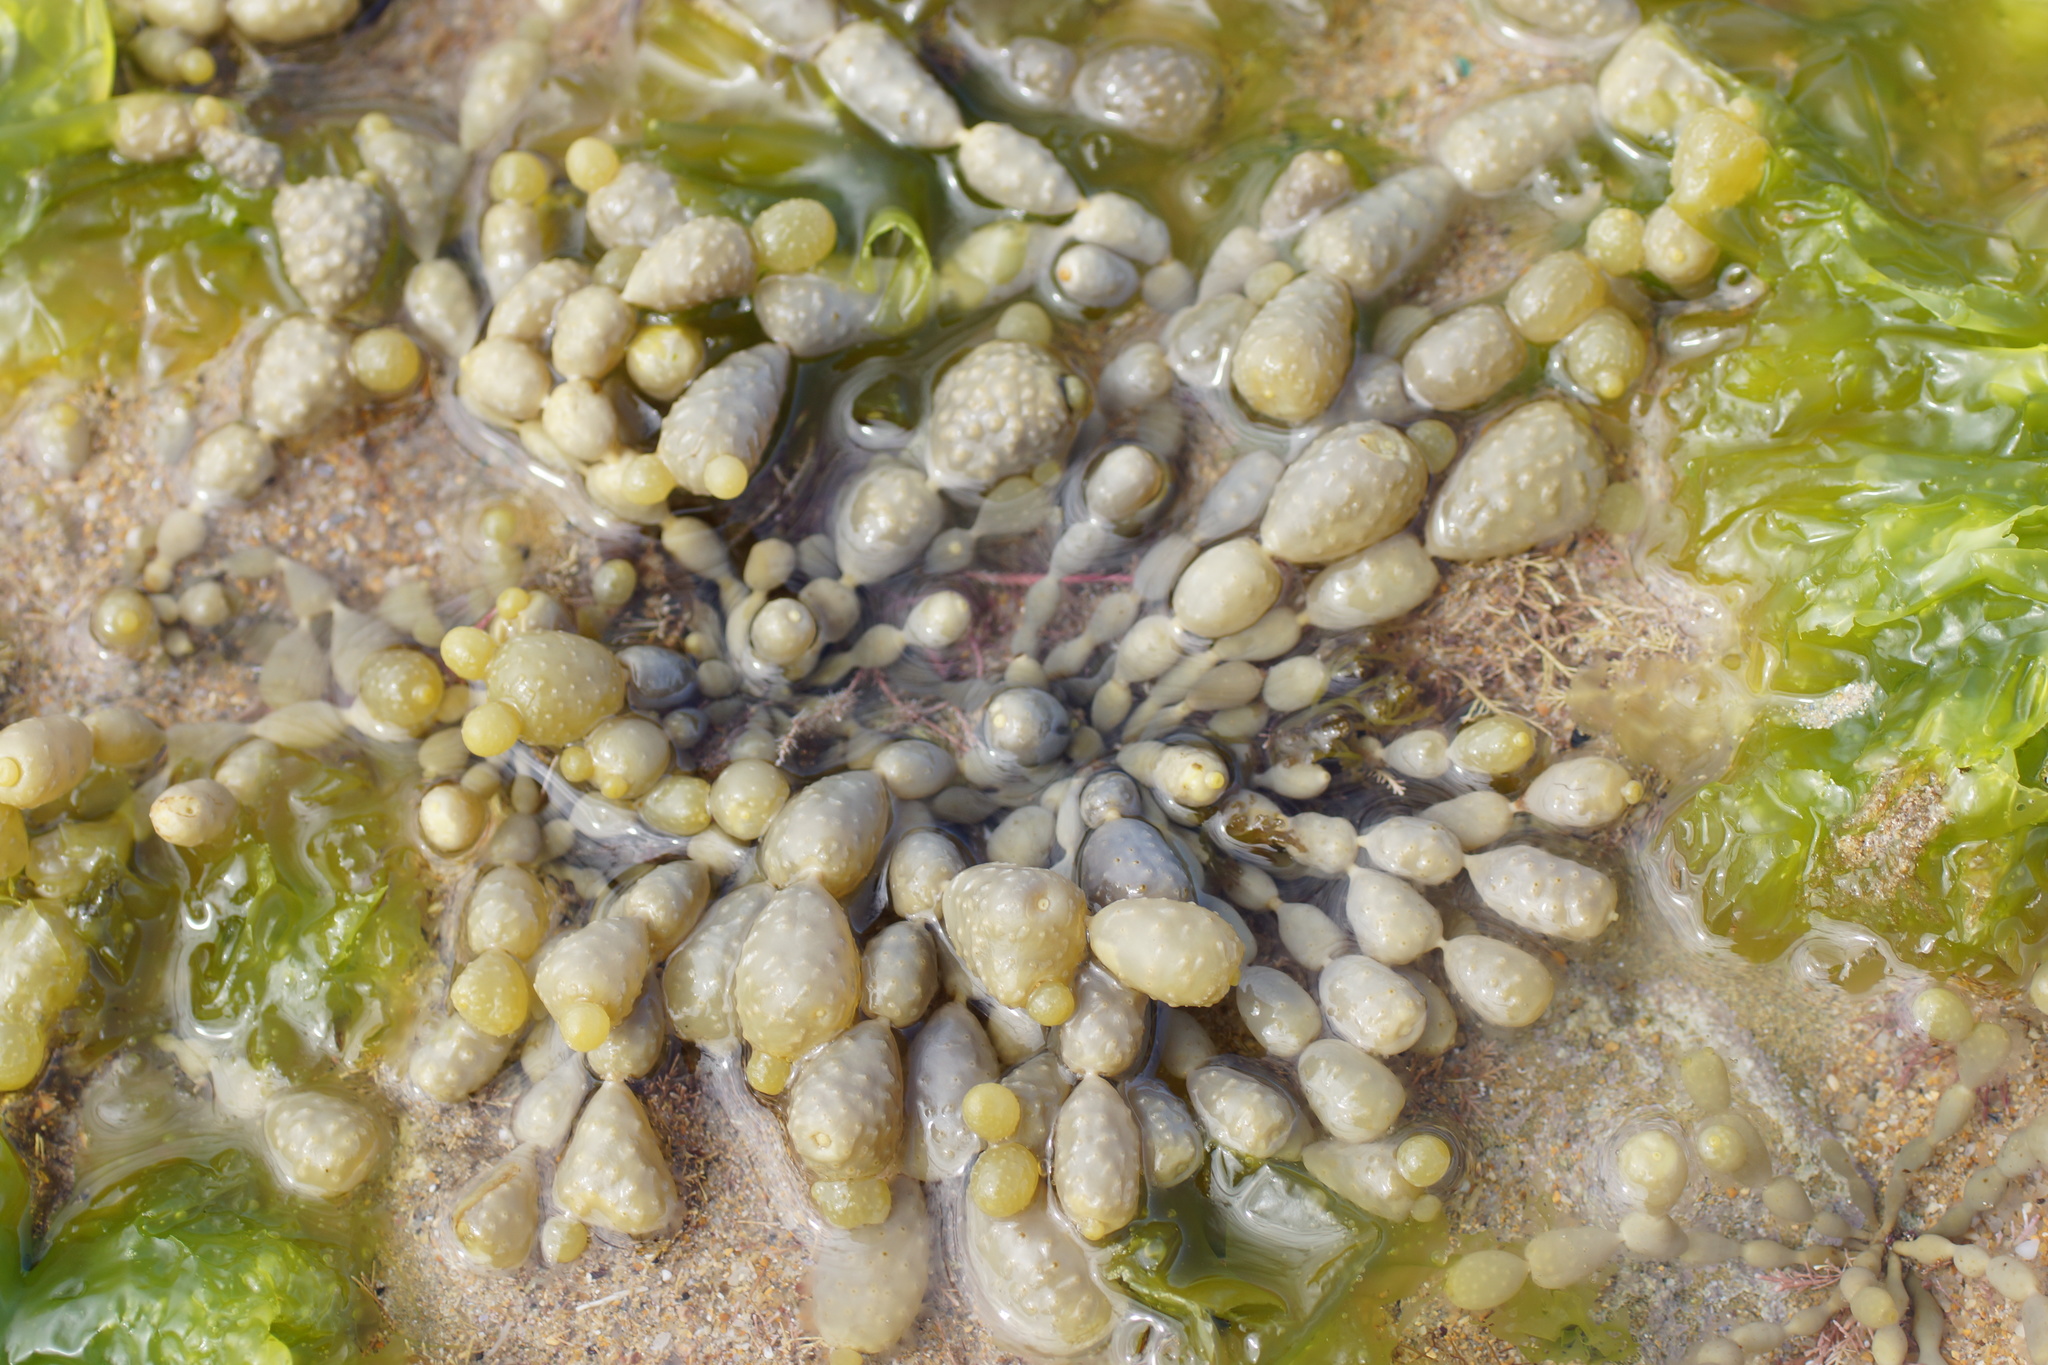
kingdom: Chromista
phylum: Ochrophyta
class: Phaeophyceae
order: Fucales
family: Hormosiraceae
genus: Hormosira
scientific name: Hormosira banksii
